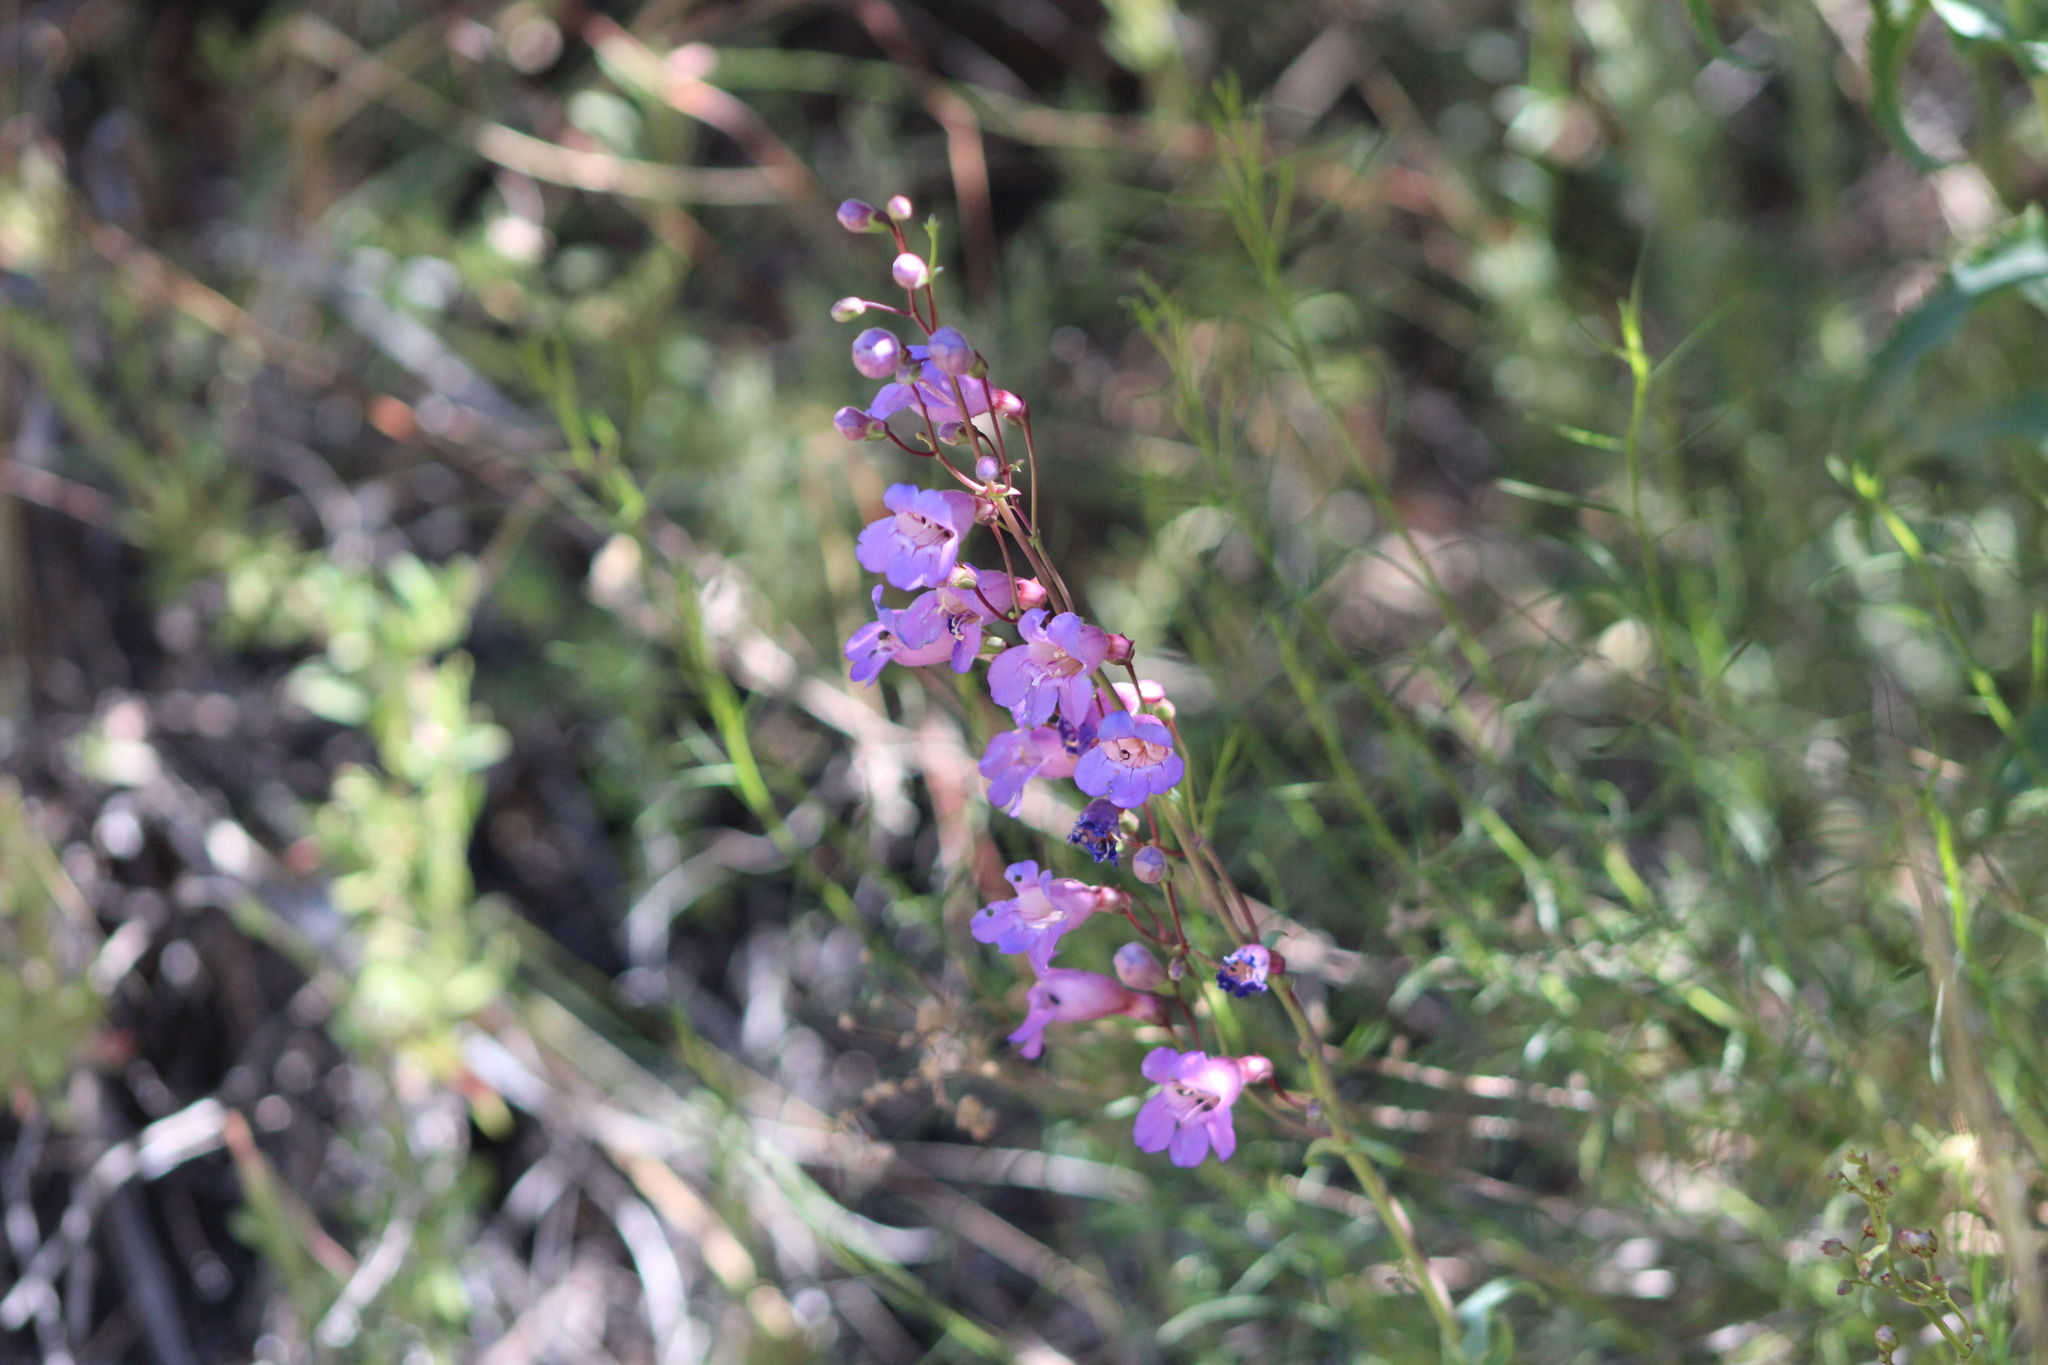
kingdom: Plantae
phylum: Tracheophyta
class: Magnoliopsida
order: Lamiales
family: Plantaginaceae
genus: Penstemon
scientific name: Penstemon spectabilis
